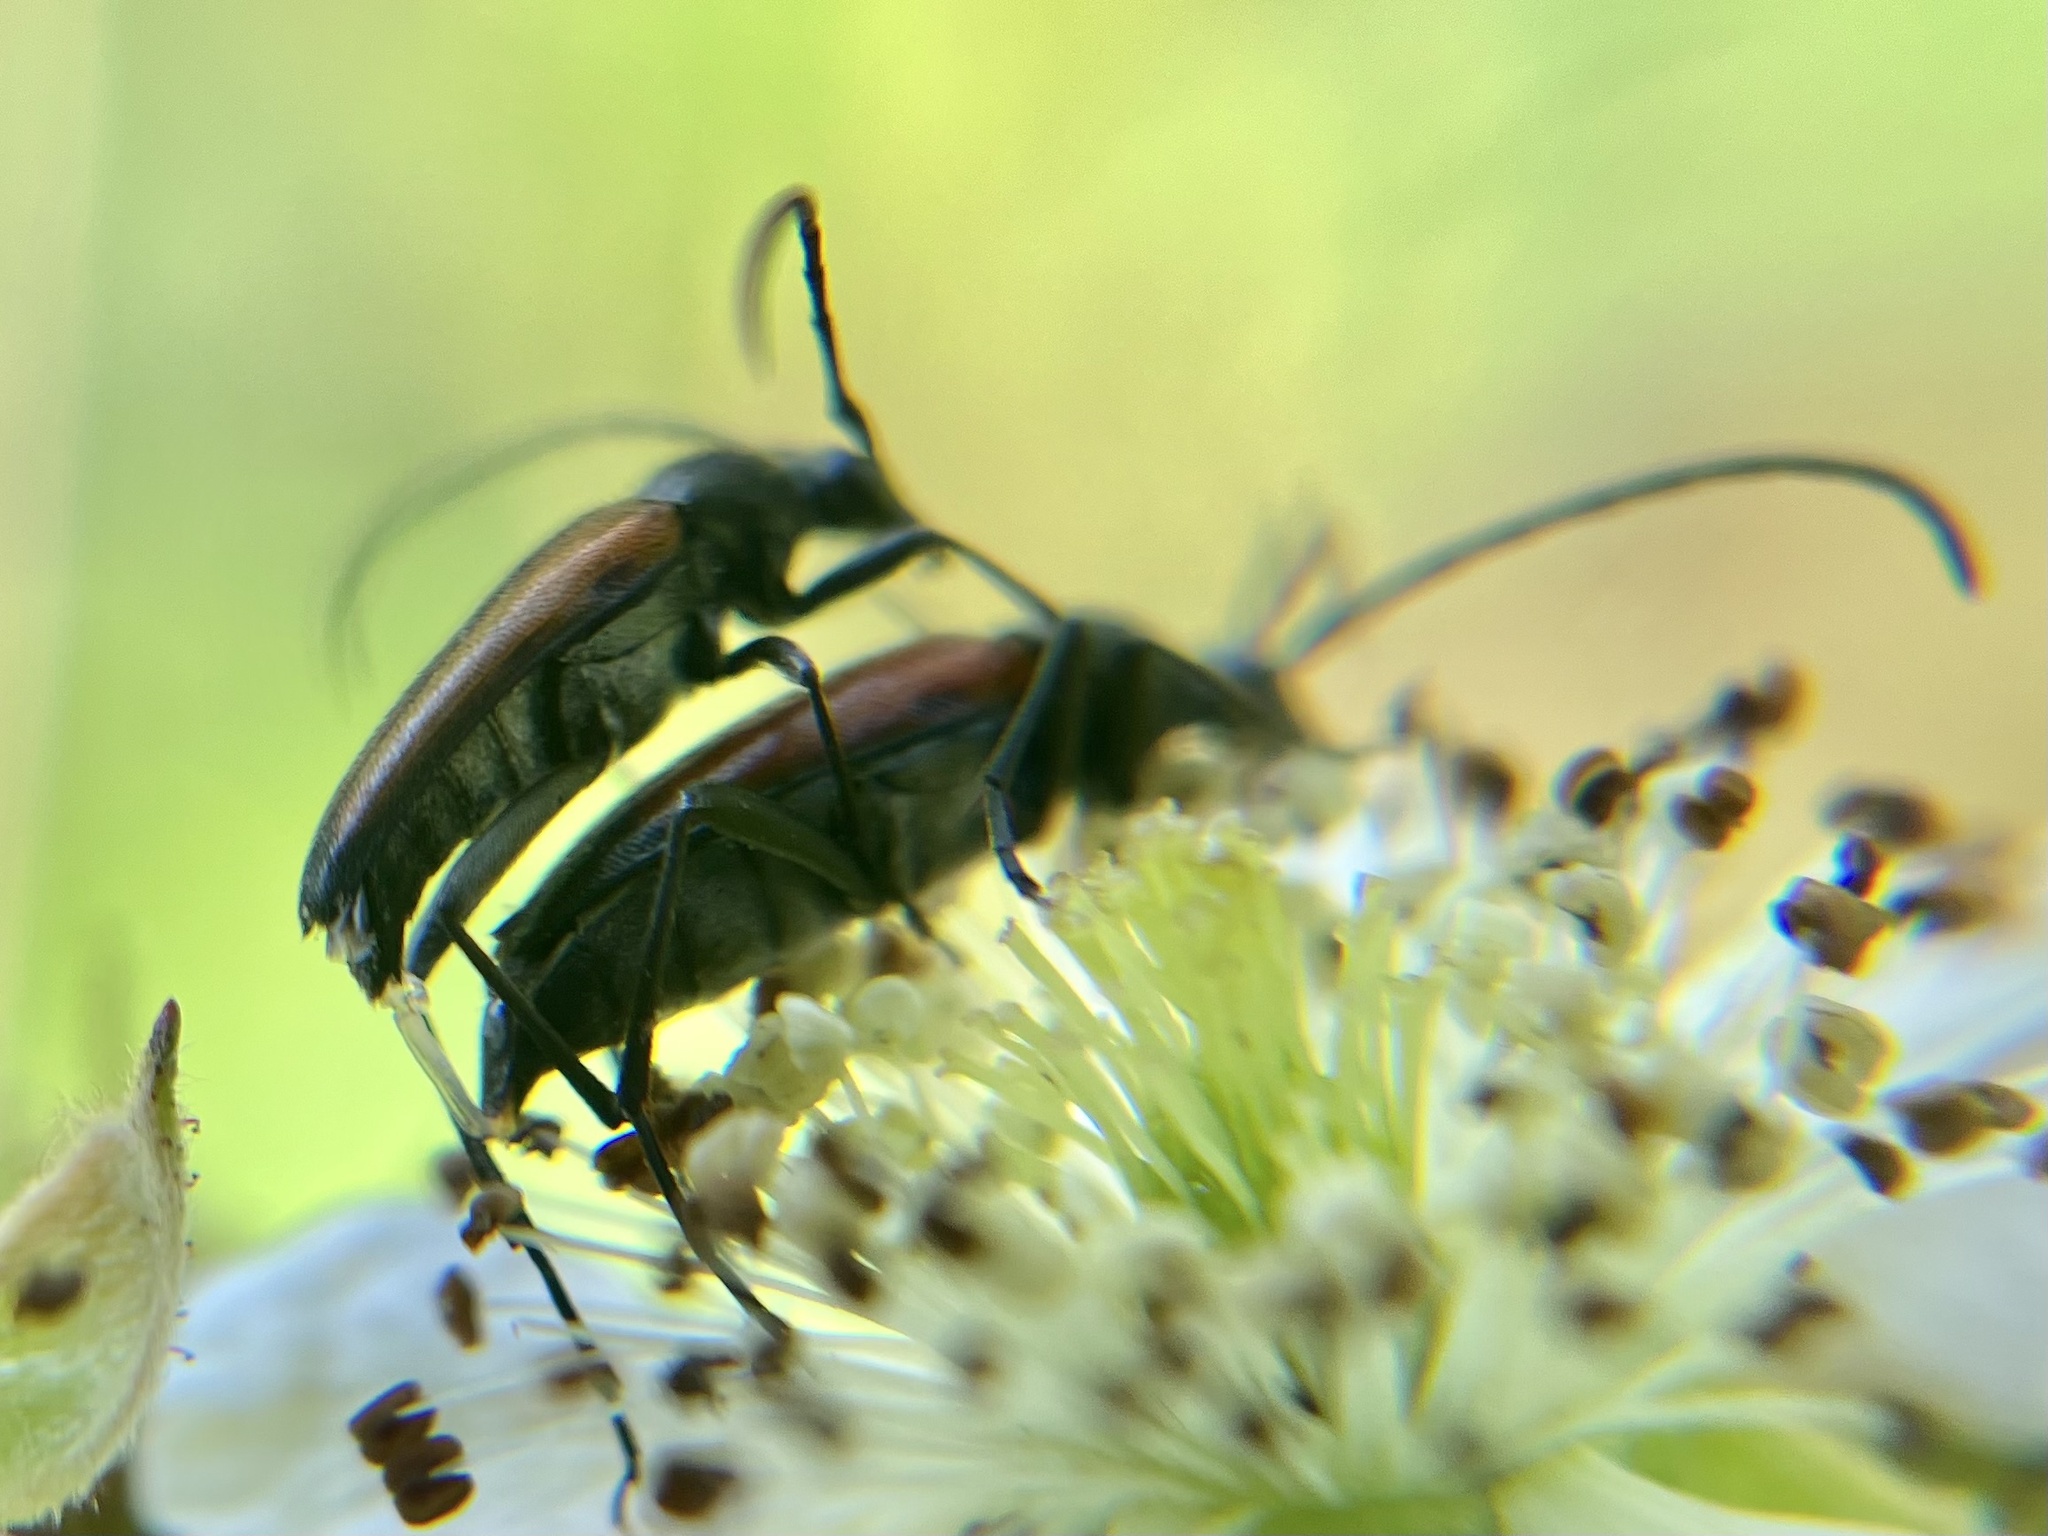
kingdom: Animalia
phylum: Arthropoda
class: Insecta
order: Coleoptera
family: Cerambycidae
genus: Stenurella
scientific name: Stenurella melanura
